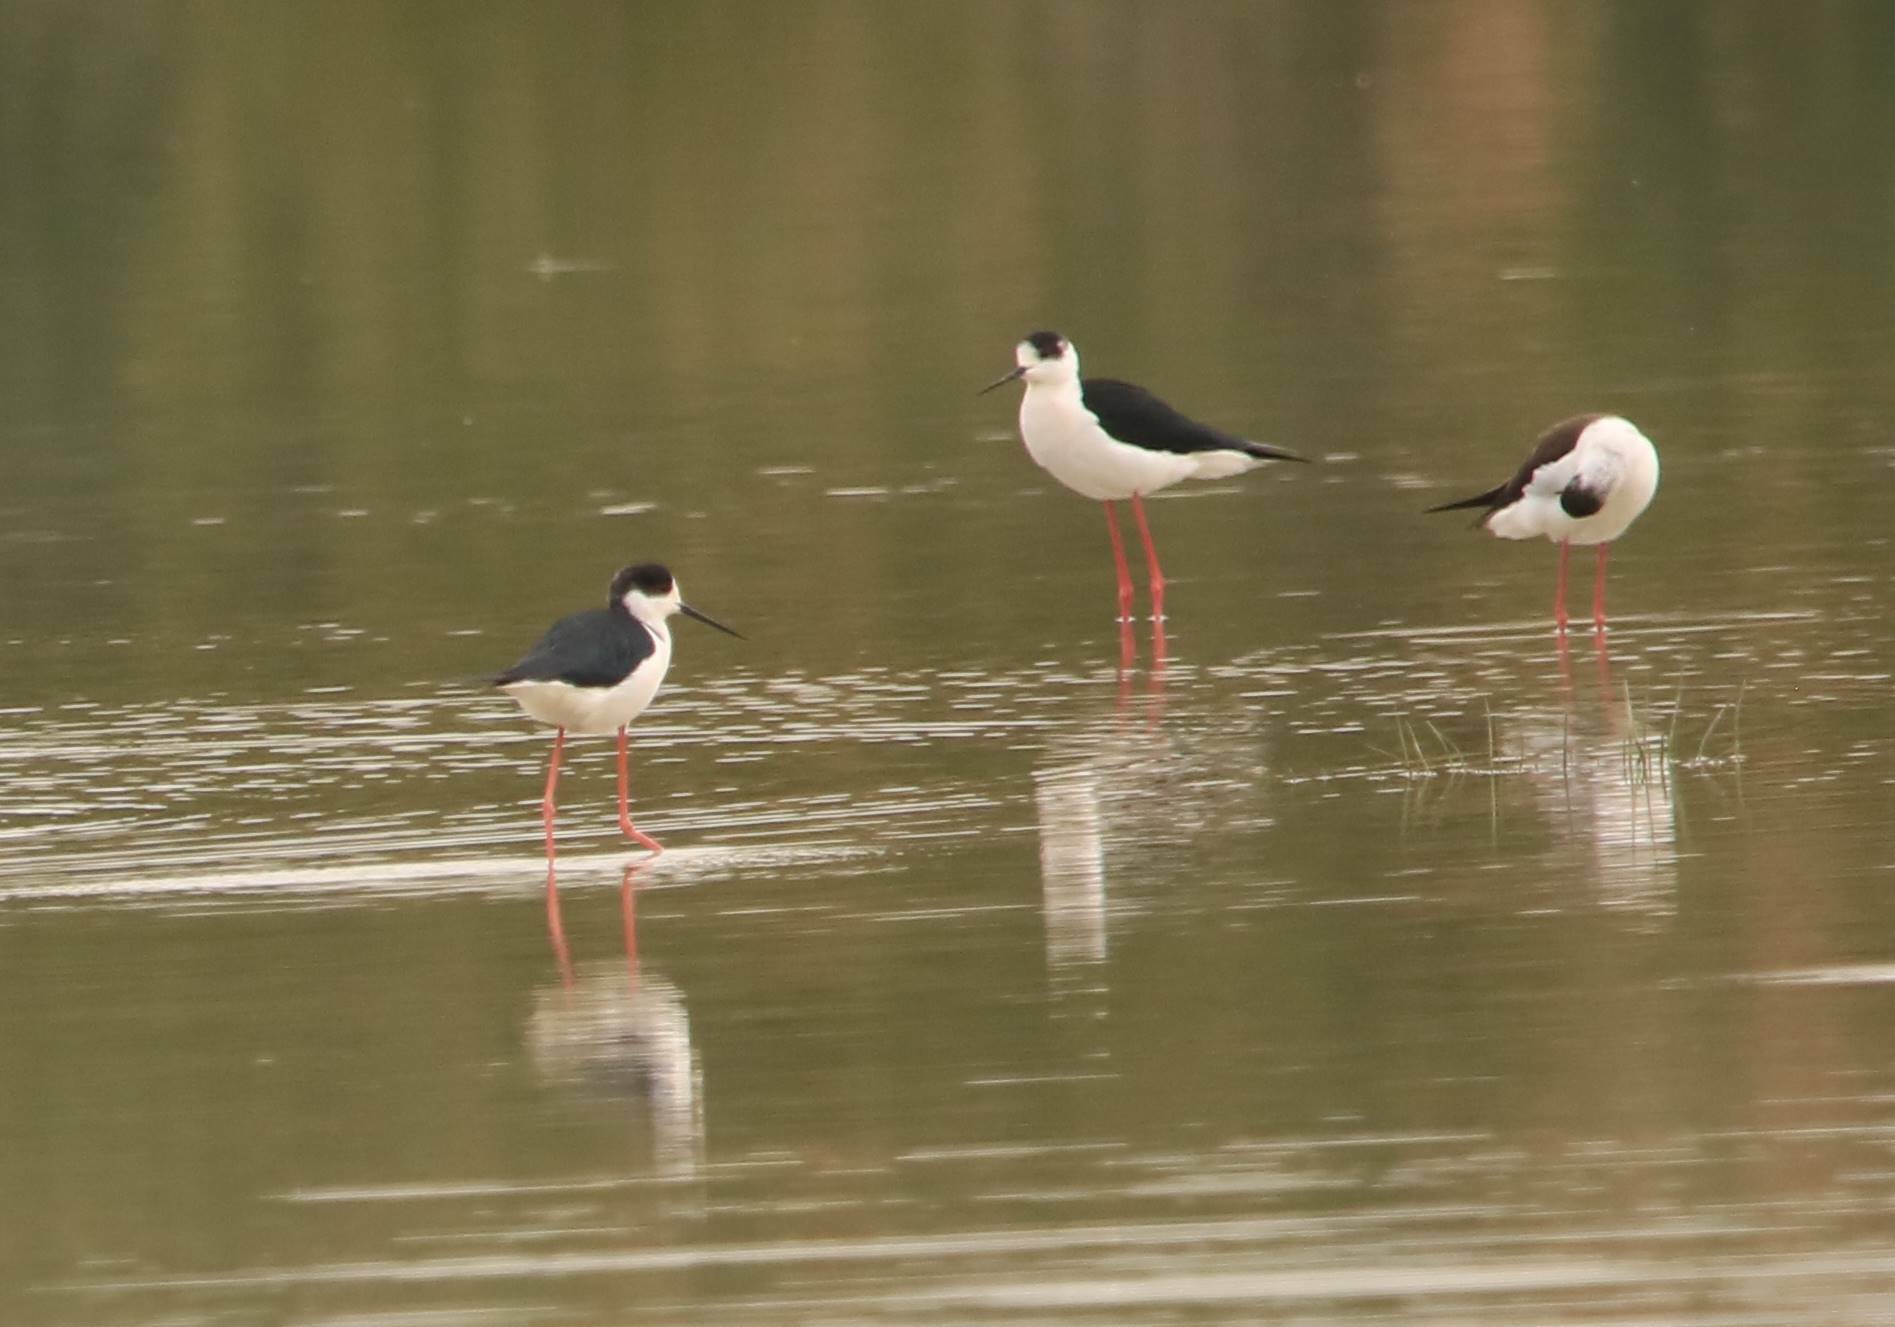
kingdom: Animalia
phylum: Chordata
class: Aves
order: Charadriiformes
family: Recurvirostridae
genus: Himantopus
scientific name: Himantopus himantopus
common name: Black-winged stilt
